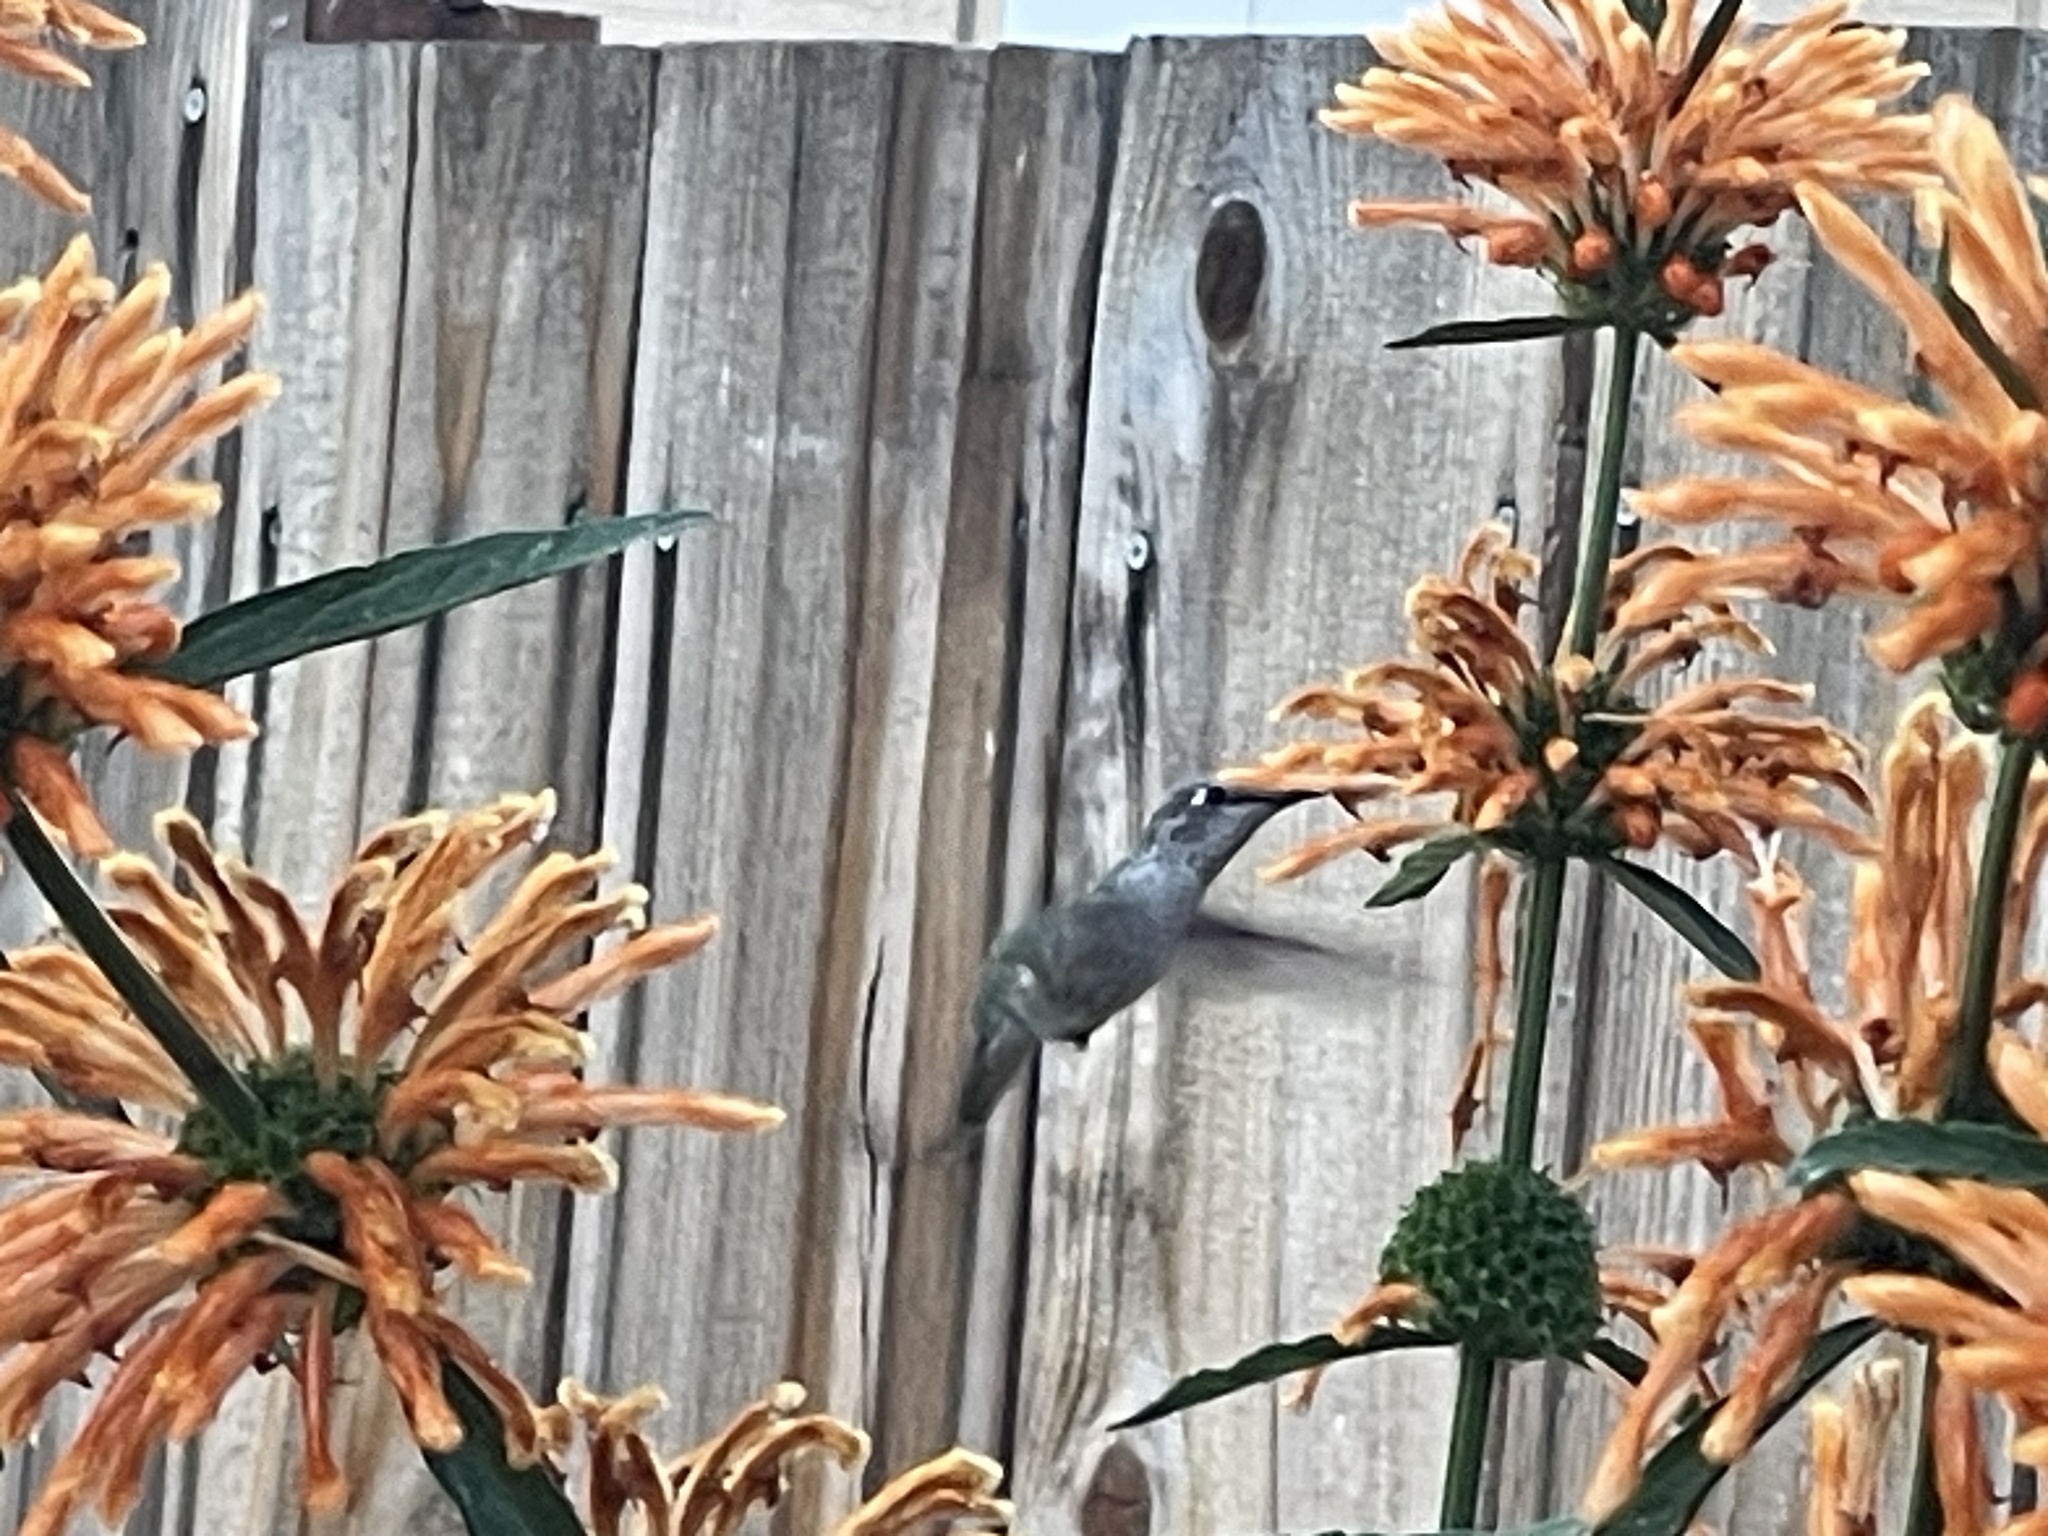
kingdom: Animalia
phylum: Chordata
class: Aves
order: Apodiformes
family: Trochilidae
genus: Calypte
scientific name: Calypte anna
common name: Anna's hummingbird
